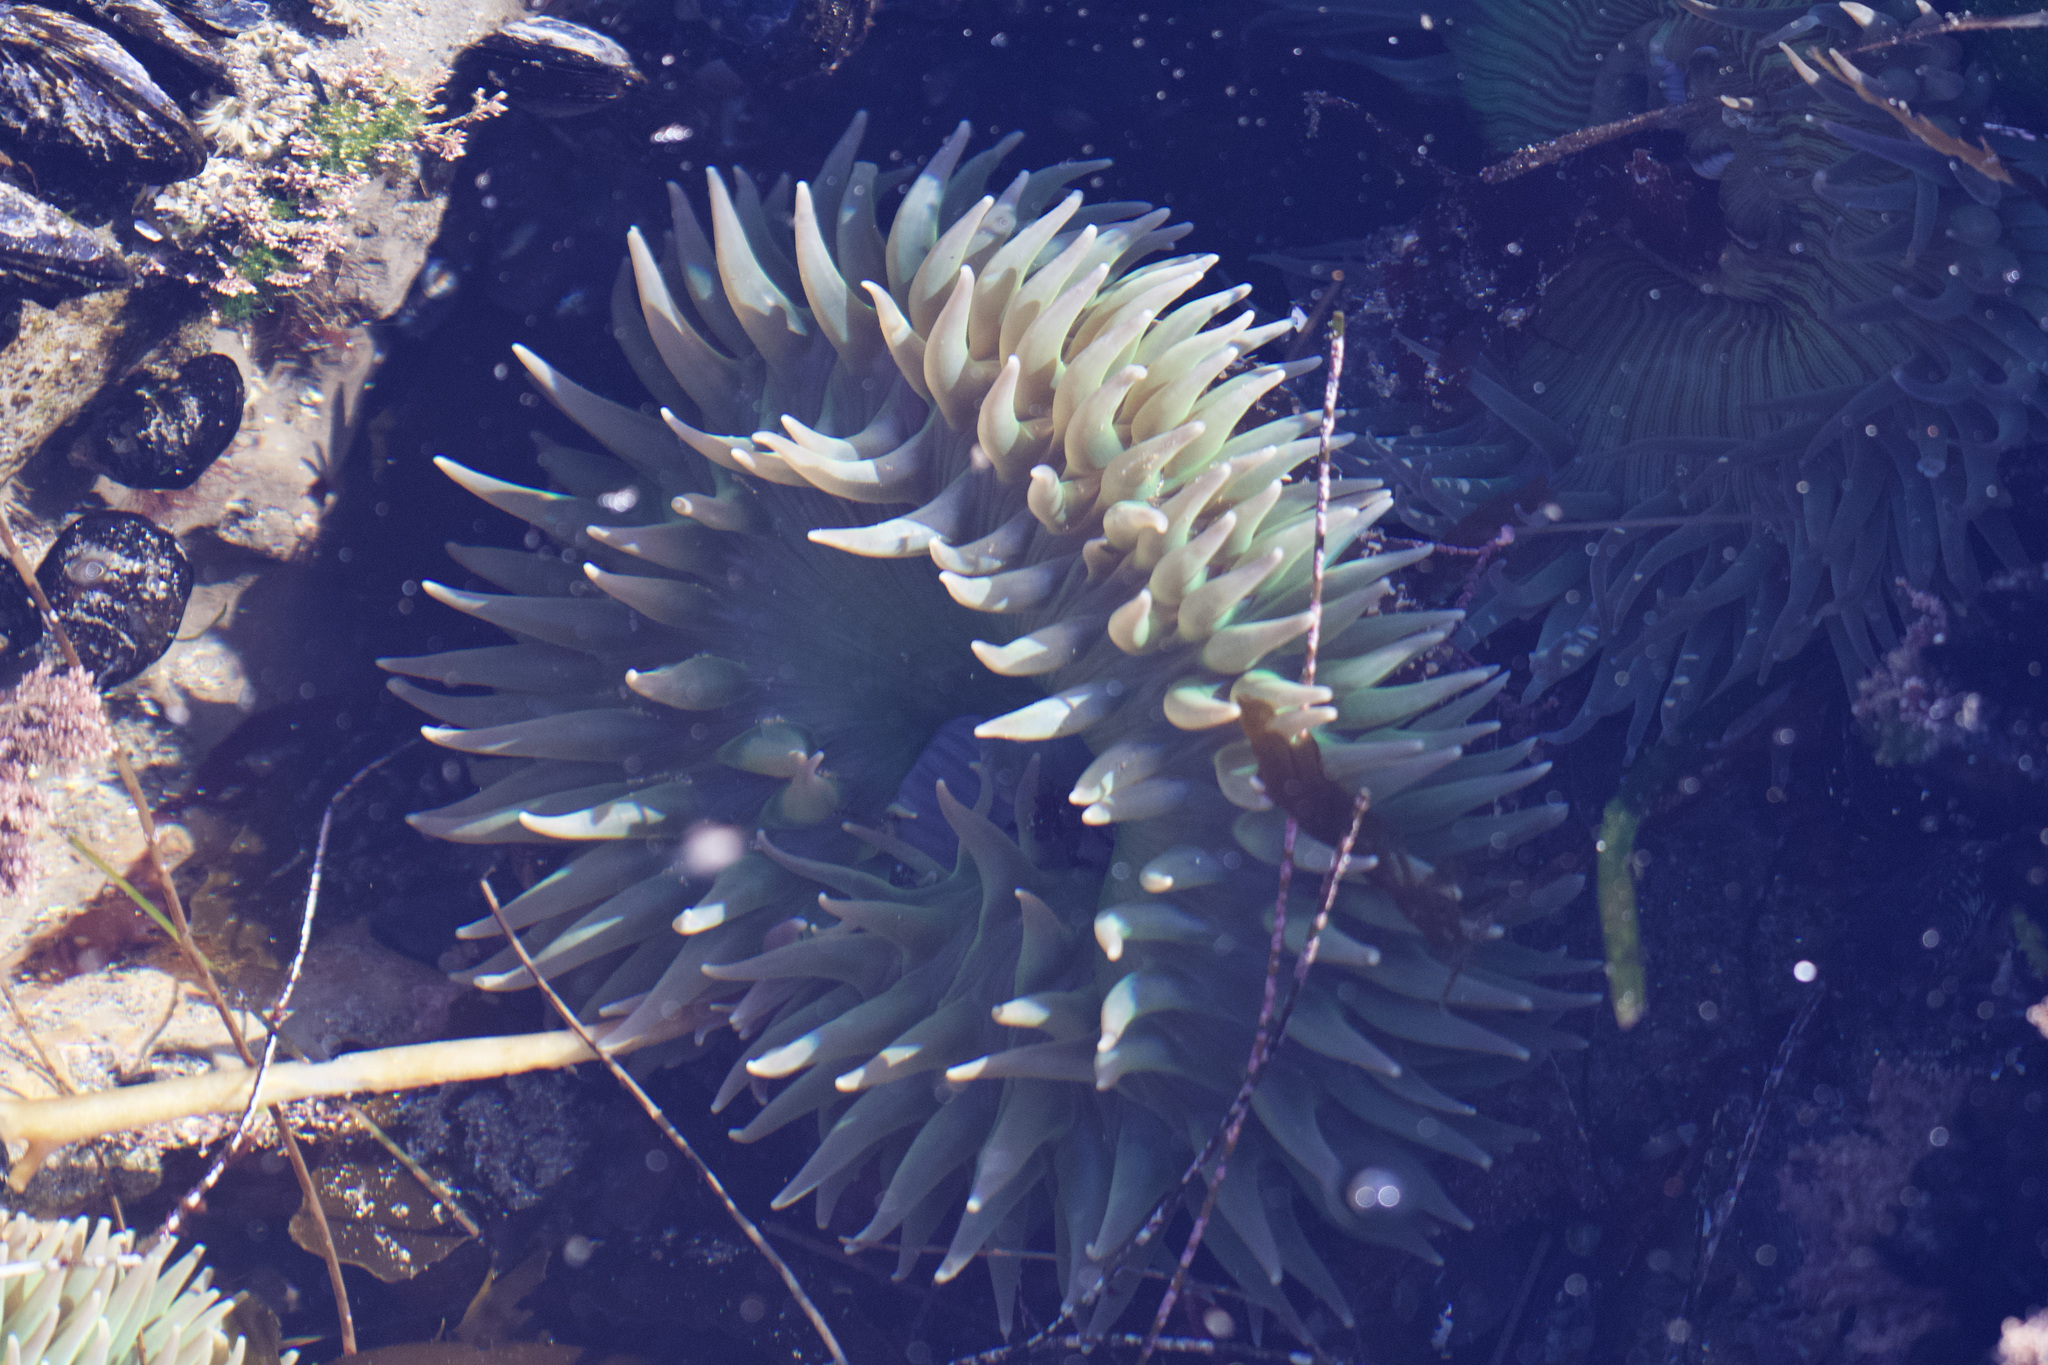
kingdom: Animalia
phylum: Cnidaria
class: Anthozoa
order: Actiniaria
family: Actiniidae
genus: Anthopleura
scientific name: Anthopleura xanthogrammica
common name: Giant green anemone
